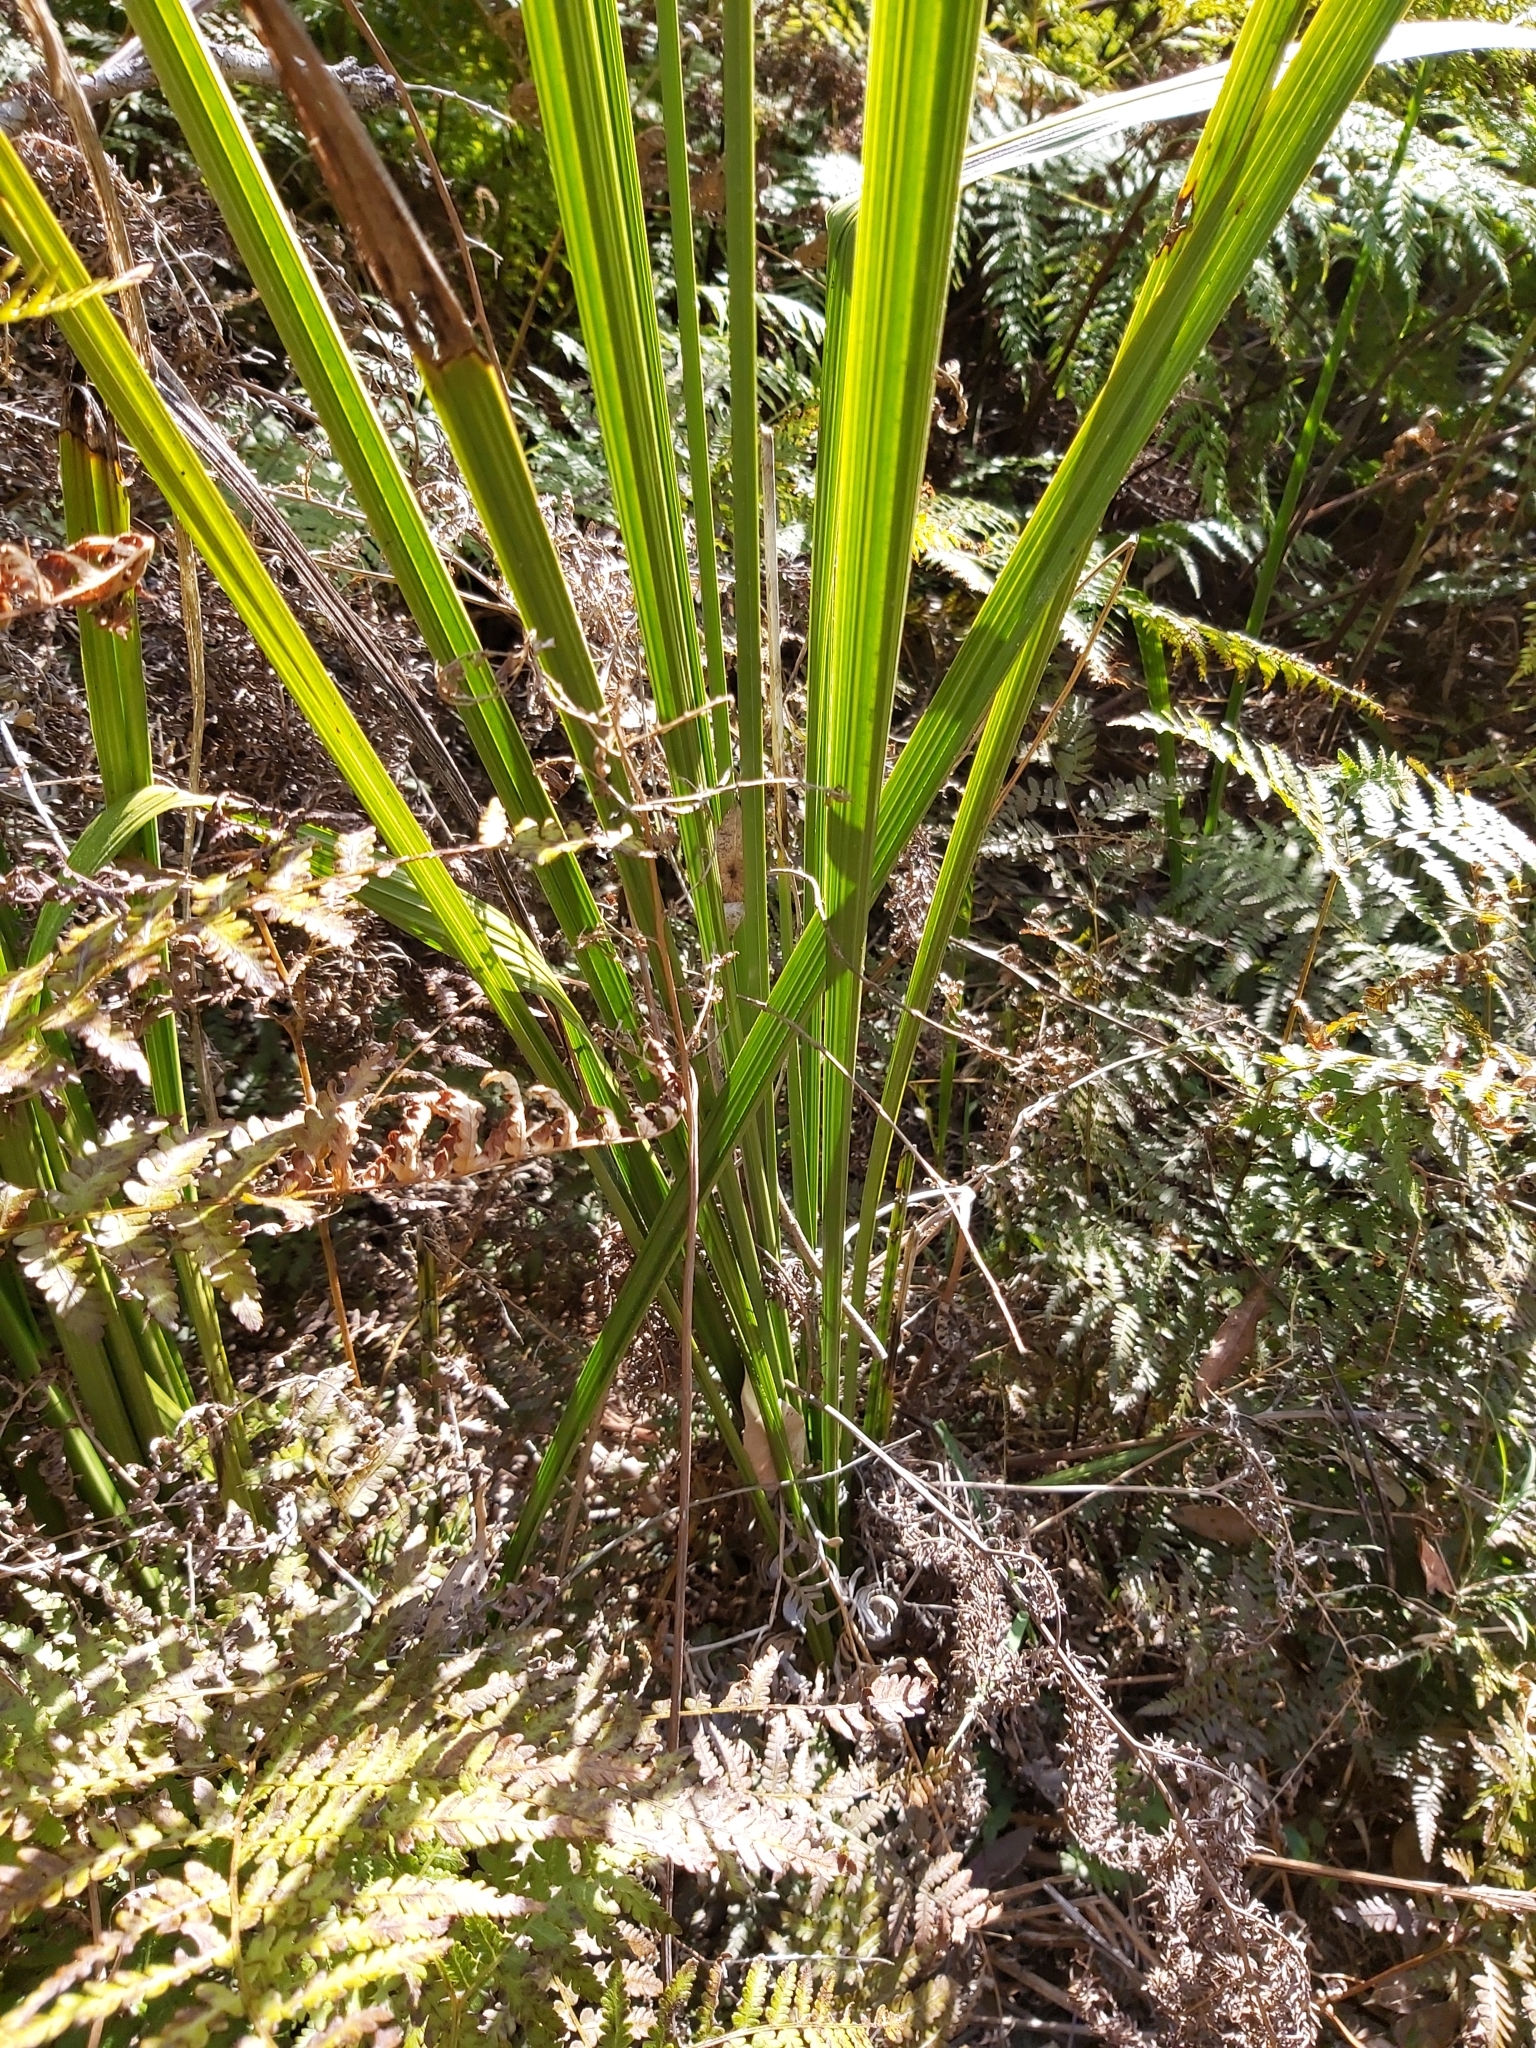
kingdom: Plantae
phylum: Tracheophyta
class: Liliopsida
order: Alismatales
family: Araceae
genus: Gymnostachys
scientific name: Gymnostachys anceps
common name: Settler's-flax
